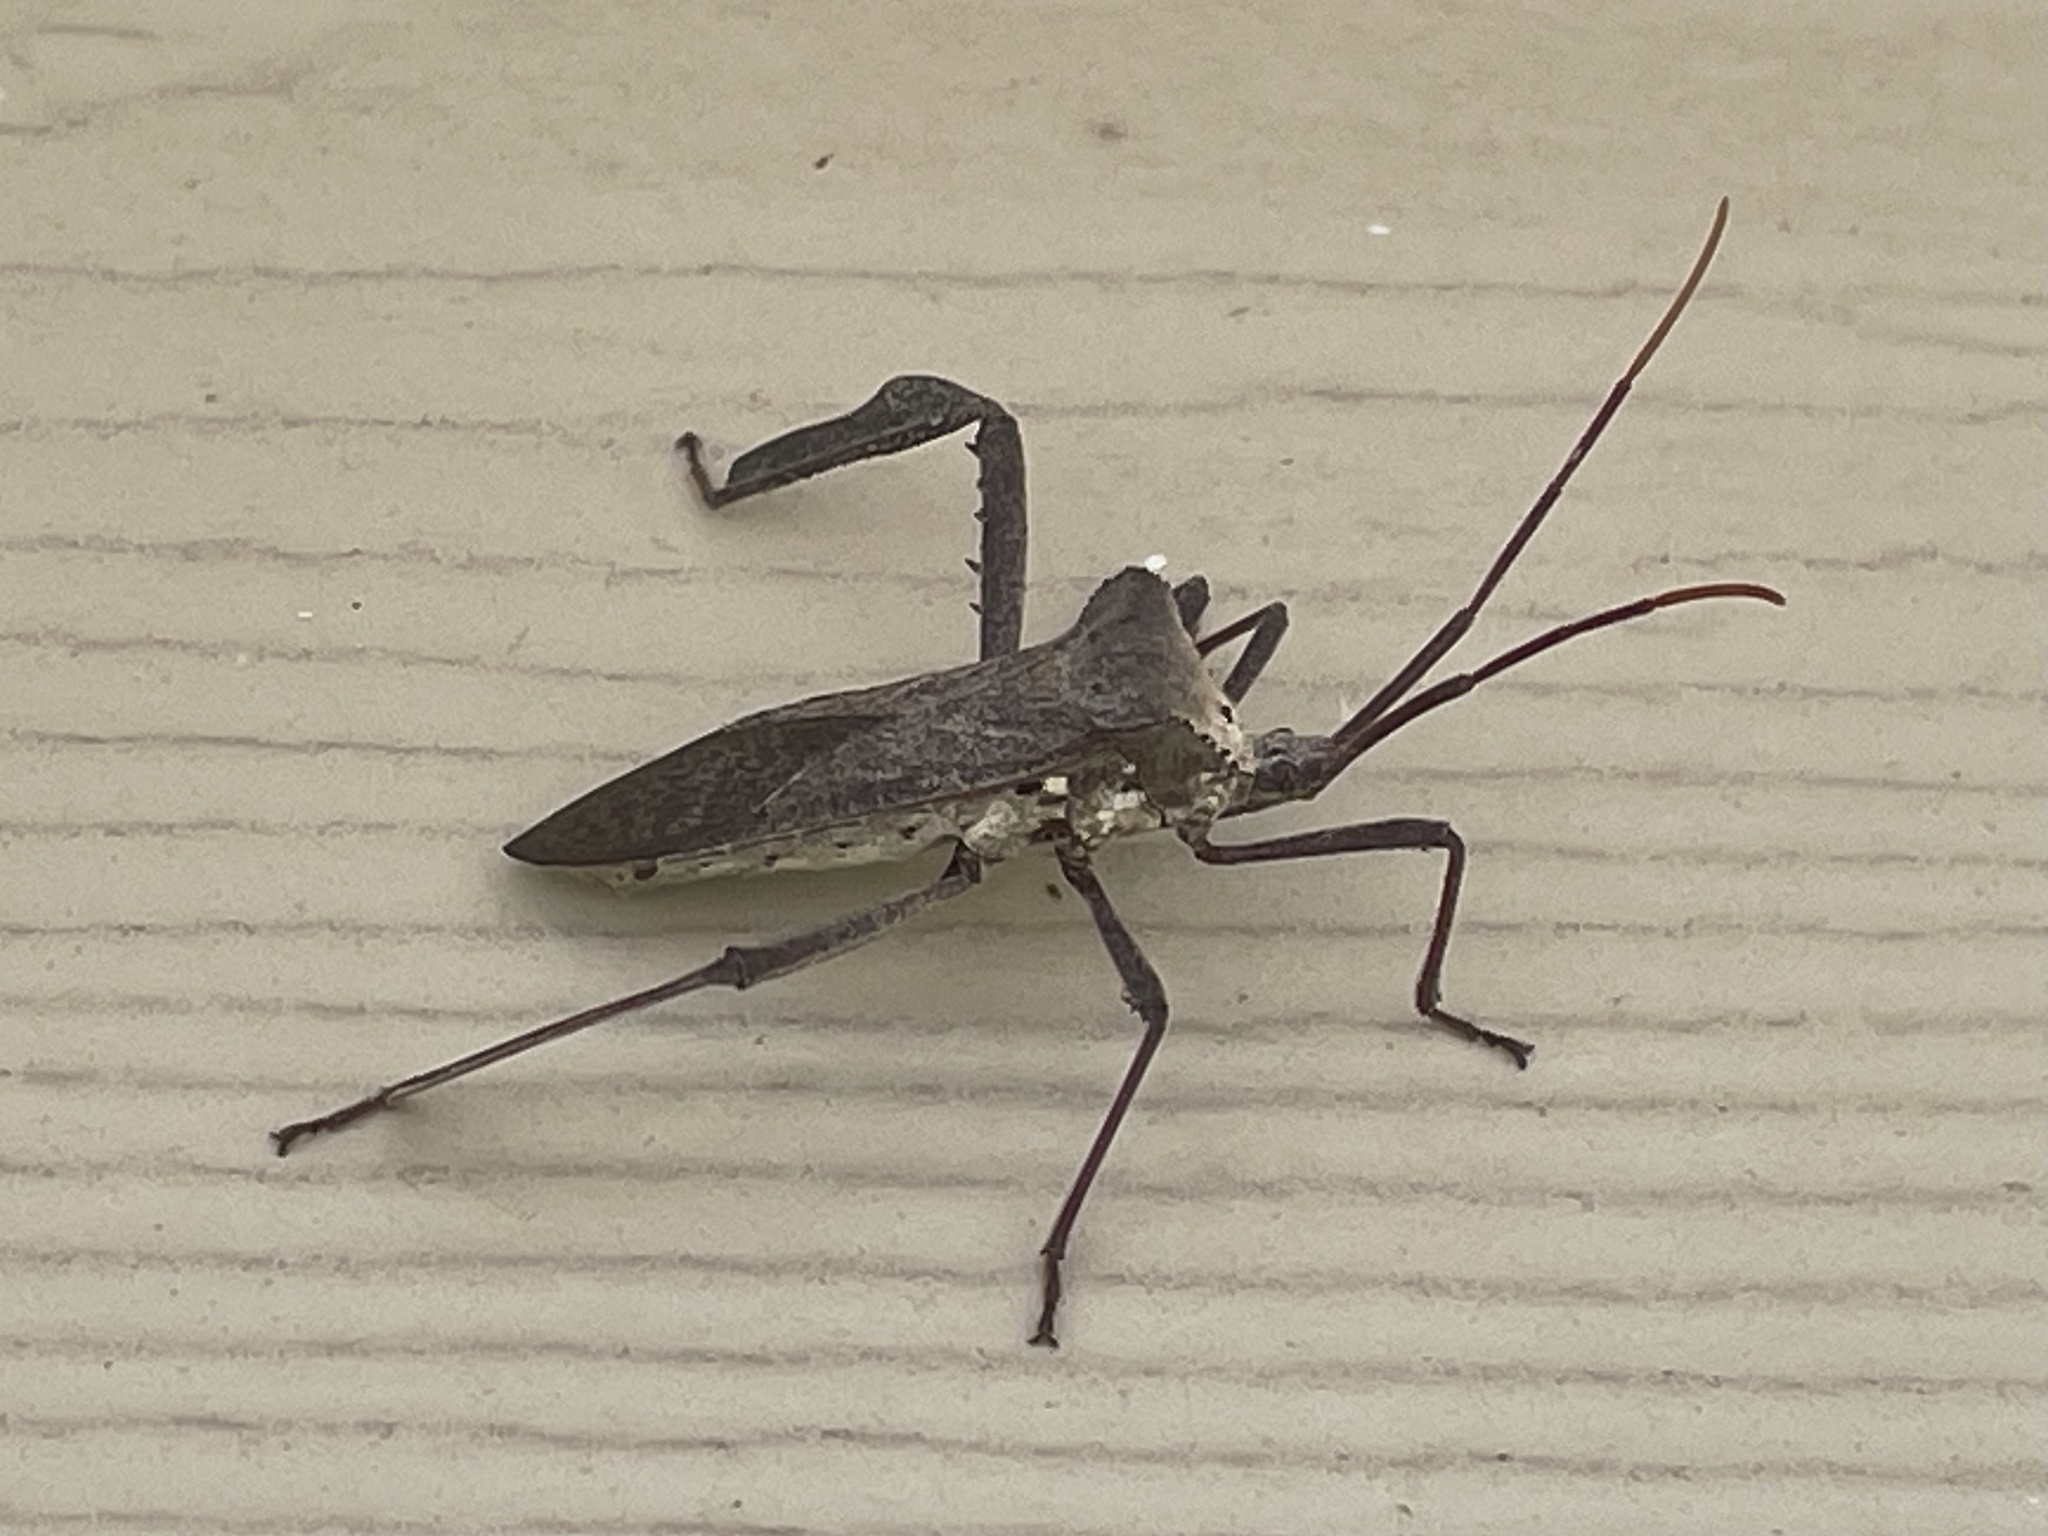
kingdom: Animalia
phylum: Arthropoda
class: Insecta
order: Hemiptera
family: Coreidae
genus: Acanthocephala
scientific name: Acanthocephala declivis
